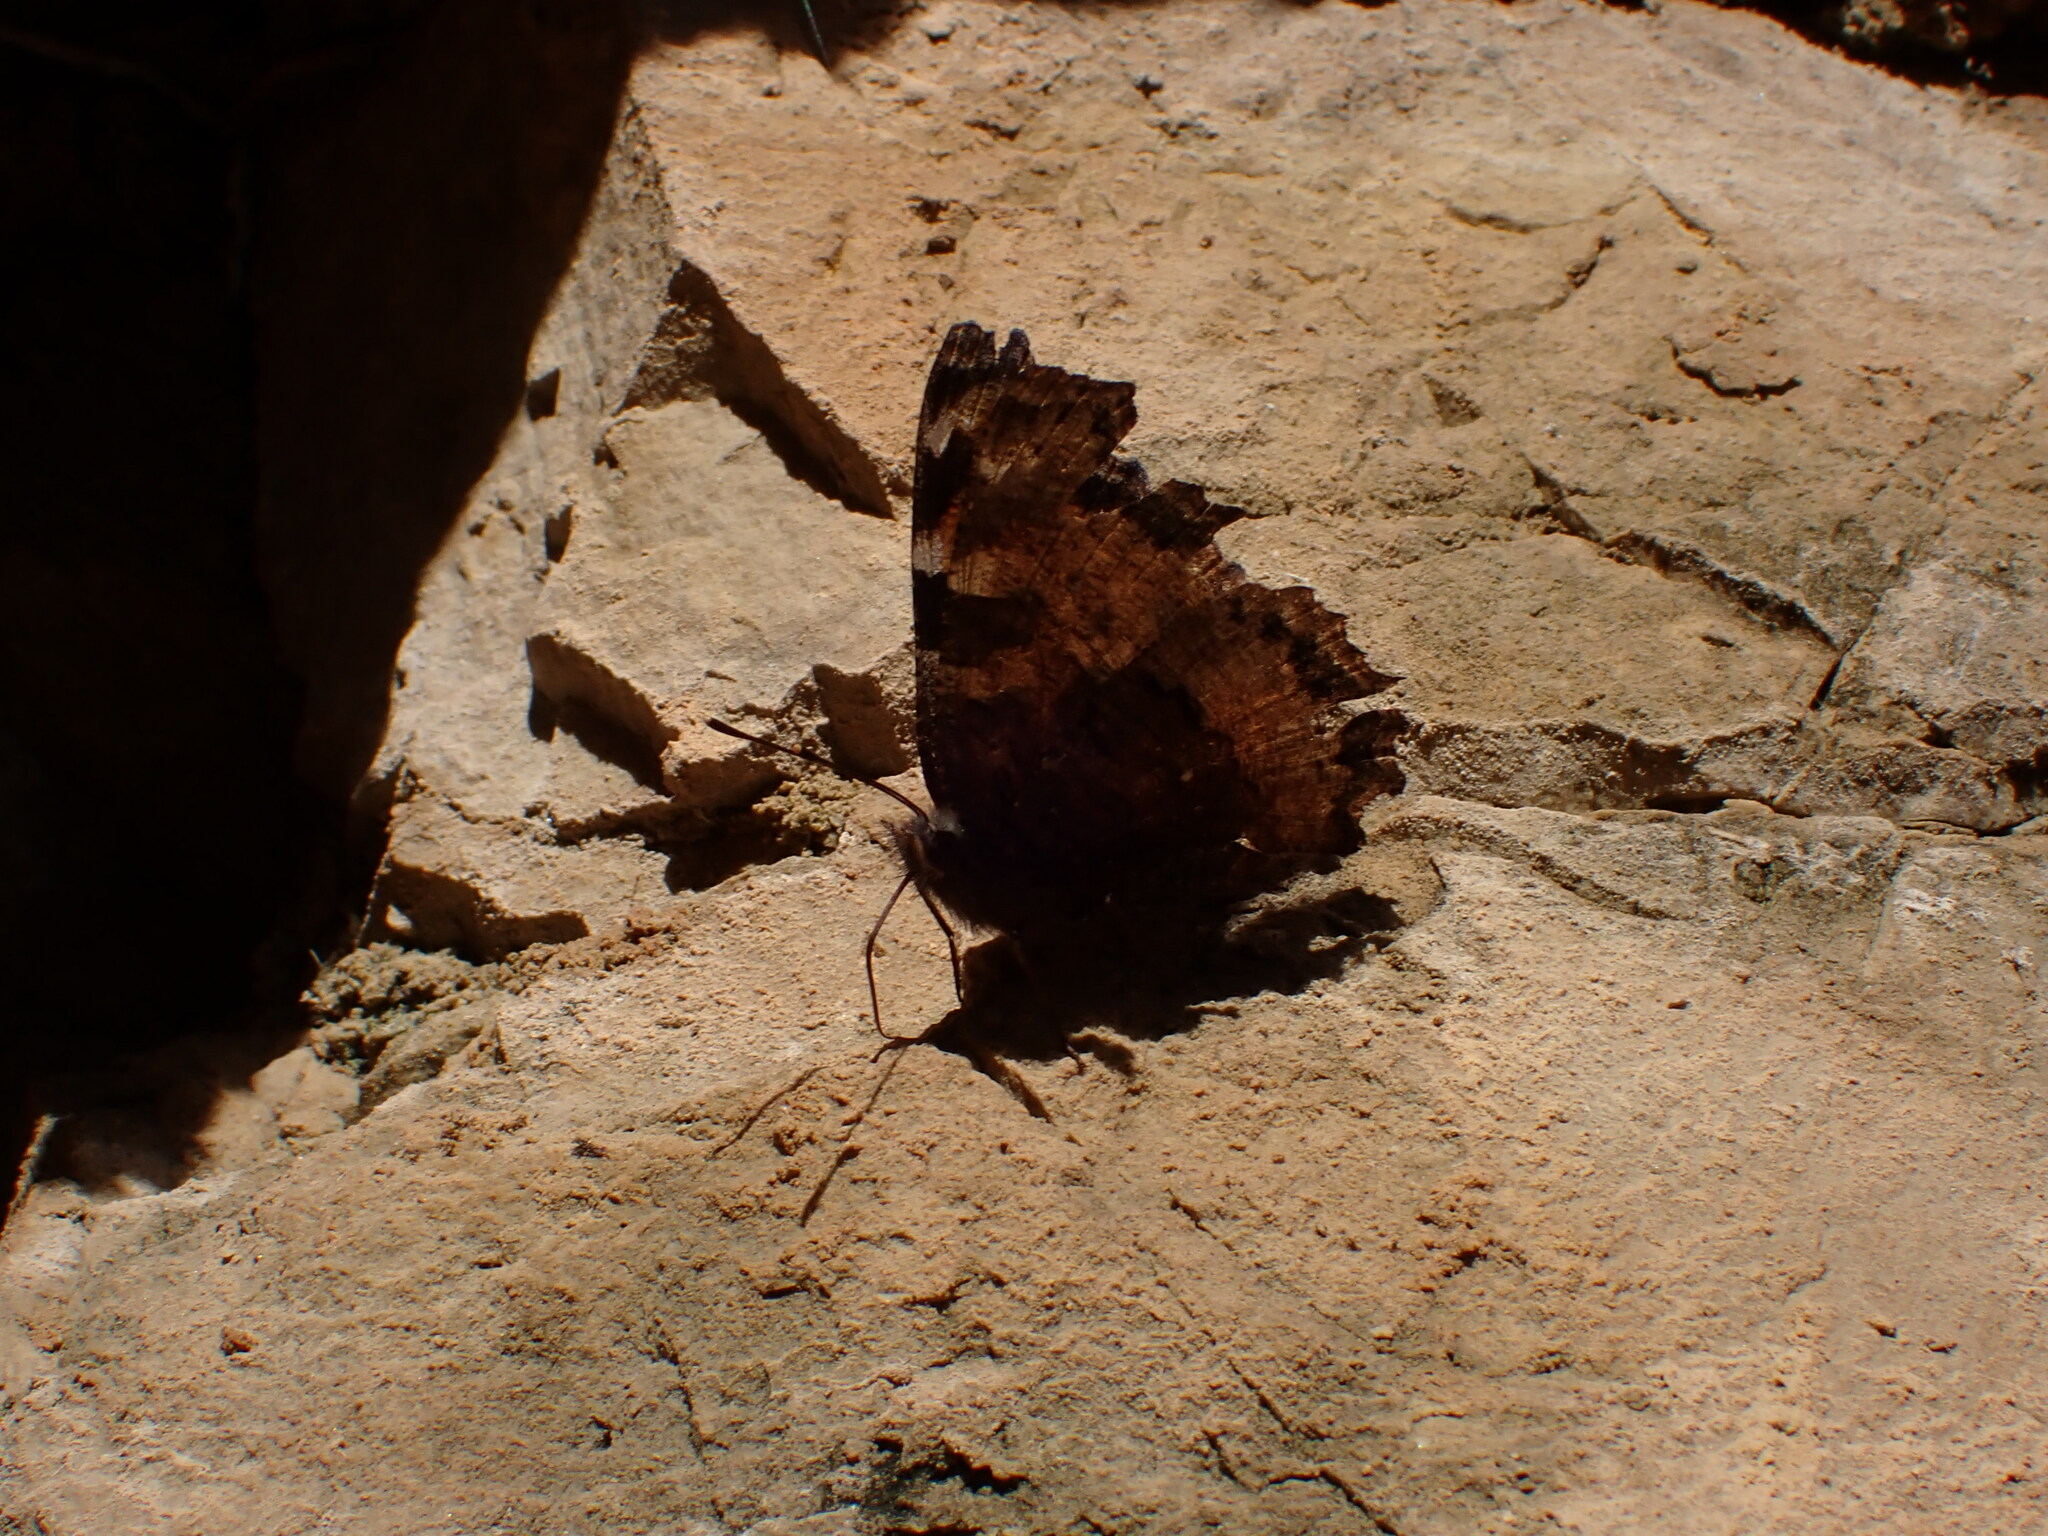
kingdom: Animalia
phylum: Arthropoda
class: Insecta
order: Lepidoptera
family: Nymphalidae
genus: Nymphalis
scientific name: Nymphalis polychloros
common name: Large tortoiseshell
